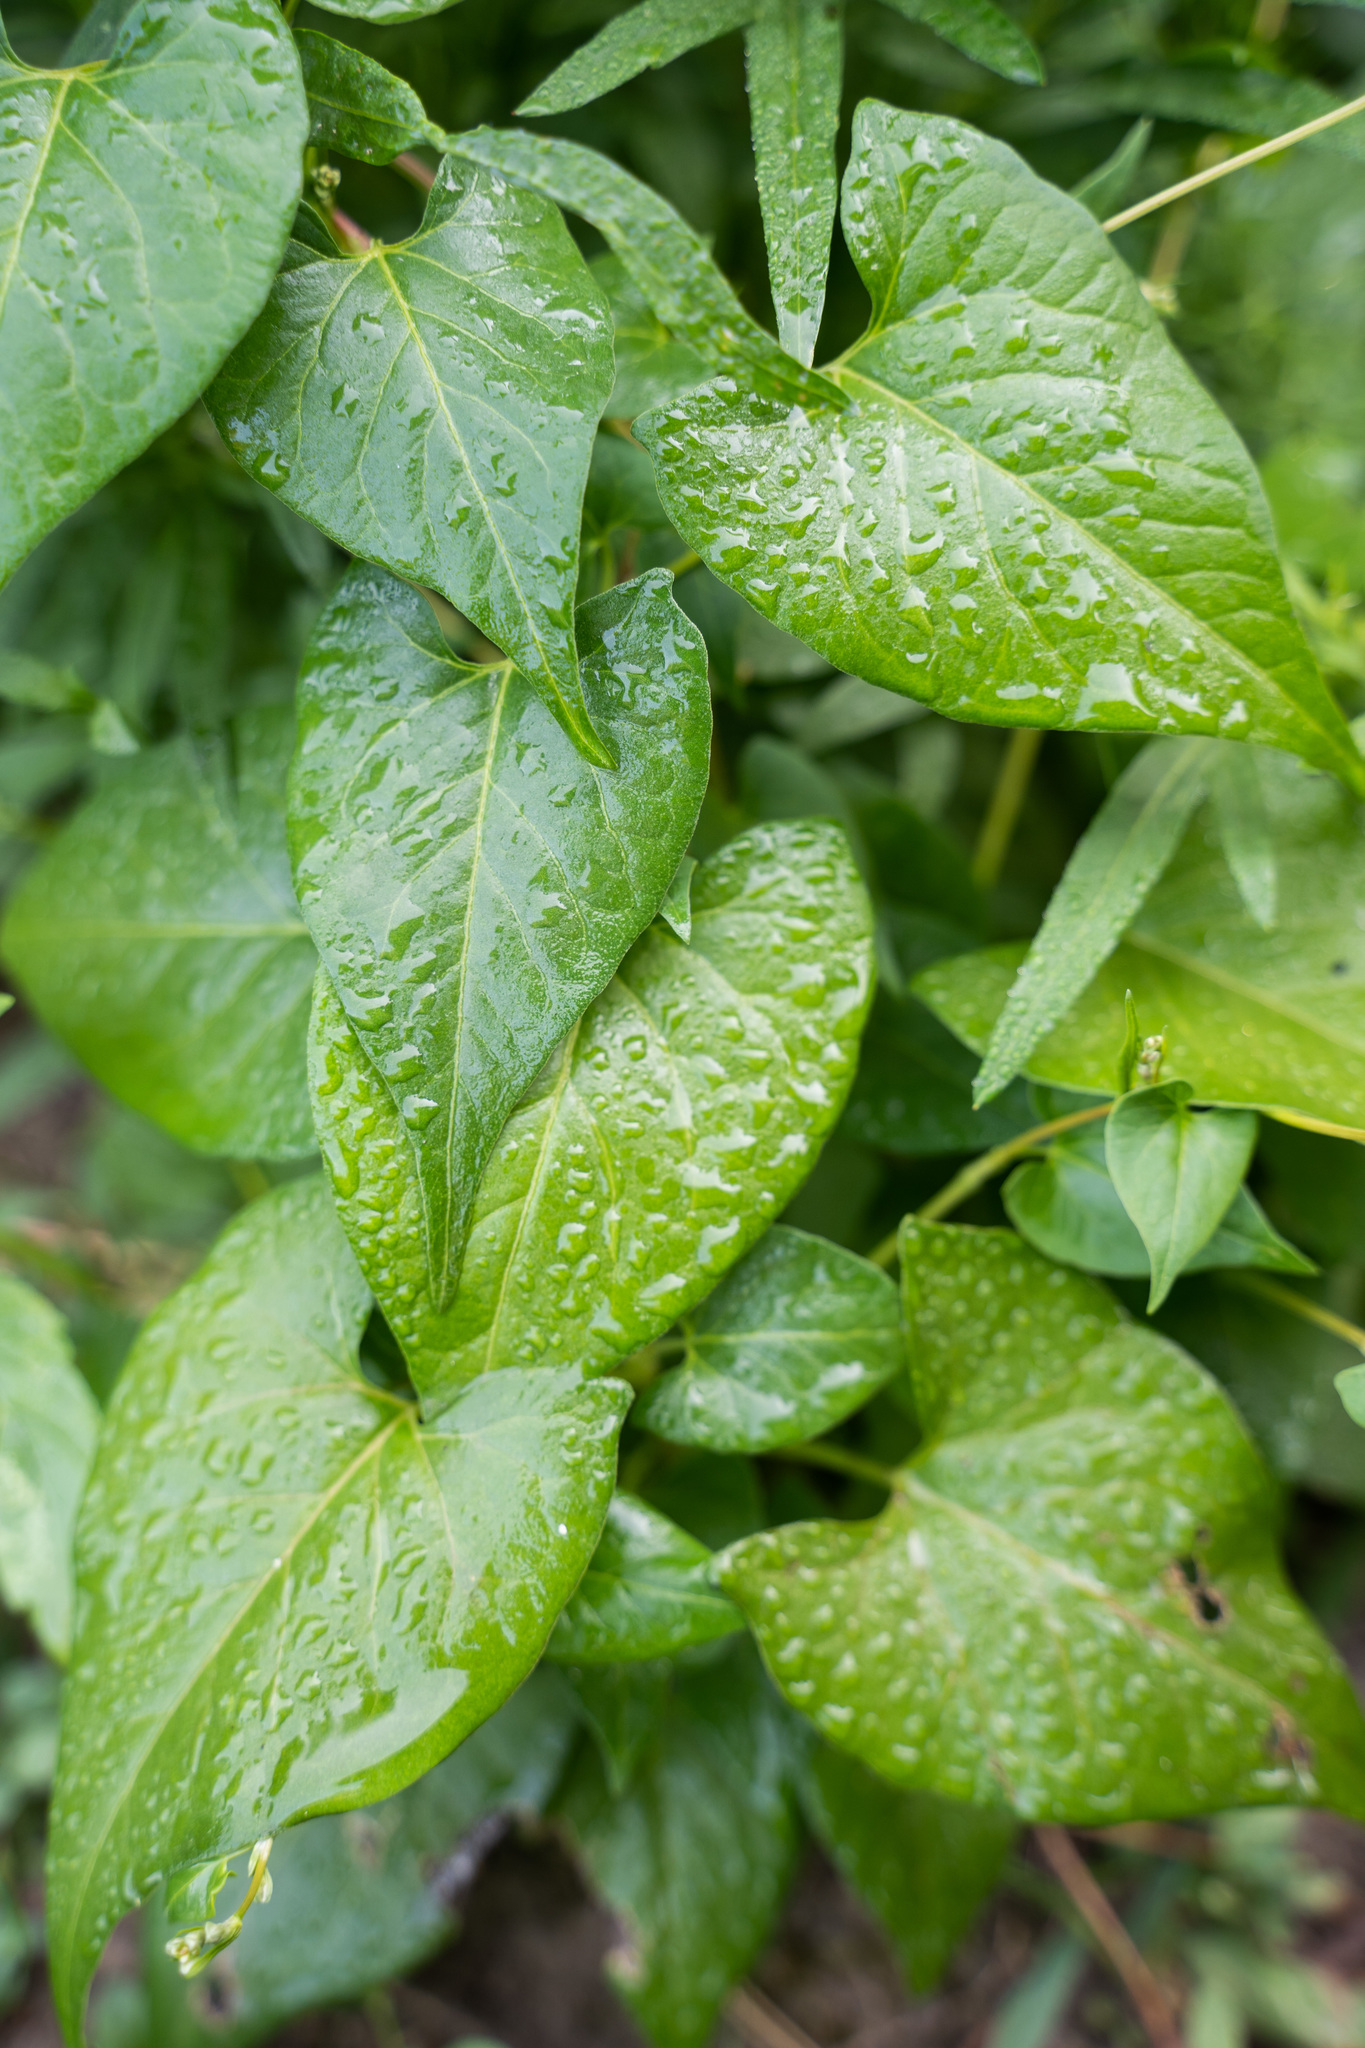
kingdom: Plantae
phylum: Tracheophyta
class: Magnoliopsida
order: Caryophyllales
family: Polygonaceae
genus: Fallopia
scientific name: Fallopia convolvulus
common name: Black bindweed
